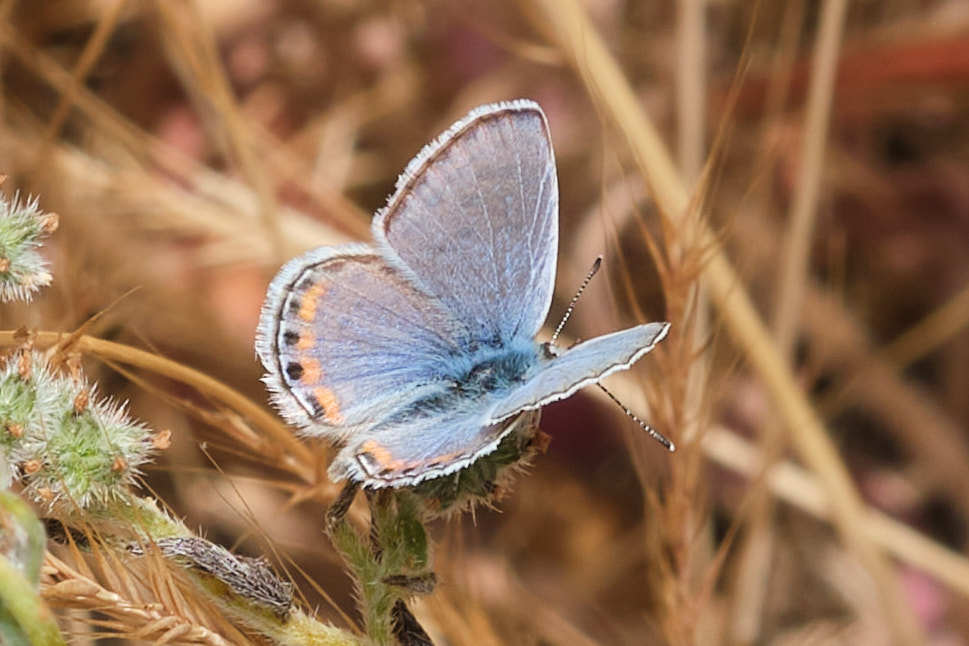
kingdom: Animalia
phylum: Arthropoda
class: Insecta
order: Lepidoptera
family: Lycaenidae
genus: Icaricia
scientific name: Icaricia acmon
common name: Acmon blue
